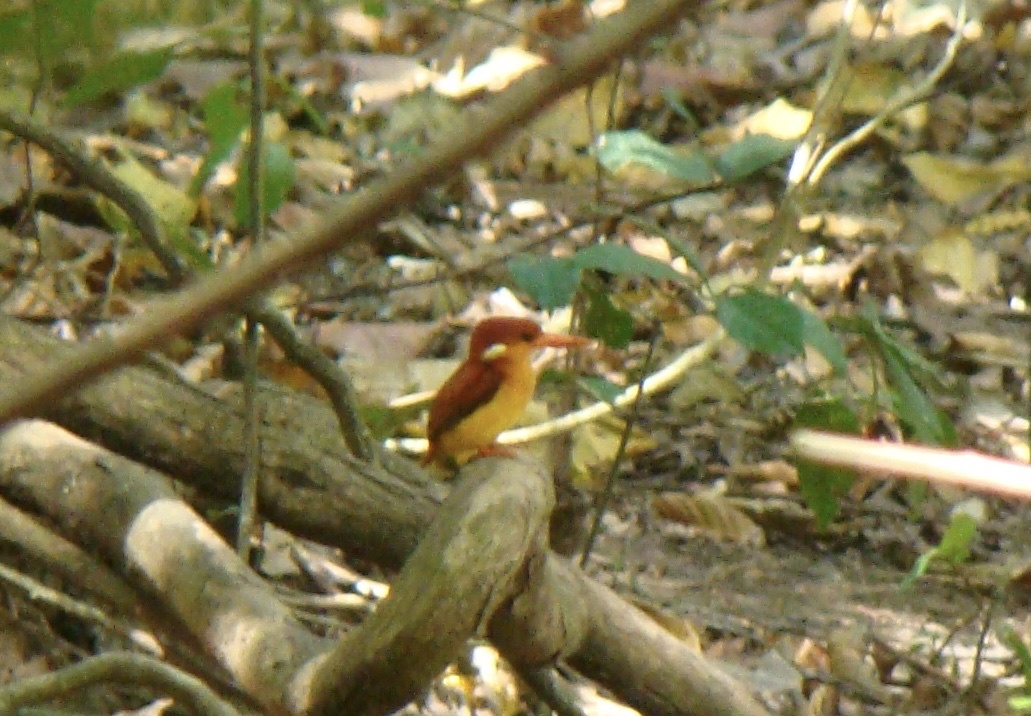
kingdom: Animalia
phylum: Chordata
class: Aves
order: Coraciiformes
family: Alcedinidae
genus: Ceyx
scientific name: Ceyx erithaca
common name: Oriental dwarf kingfisher
